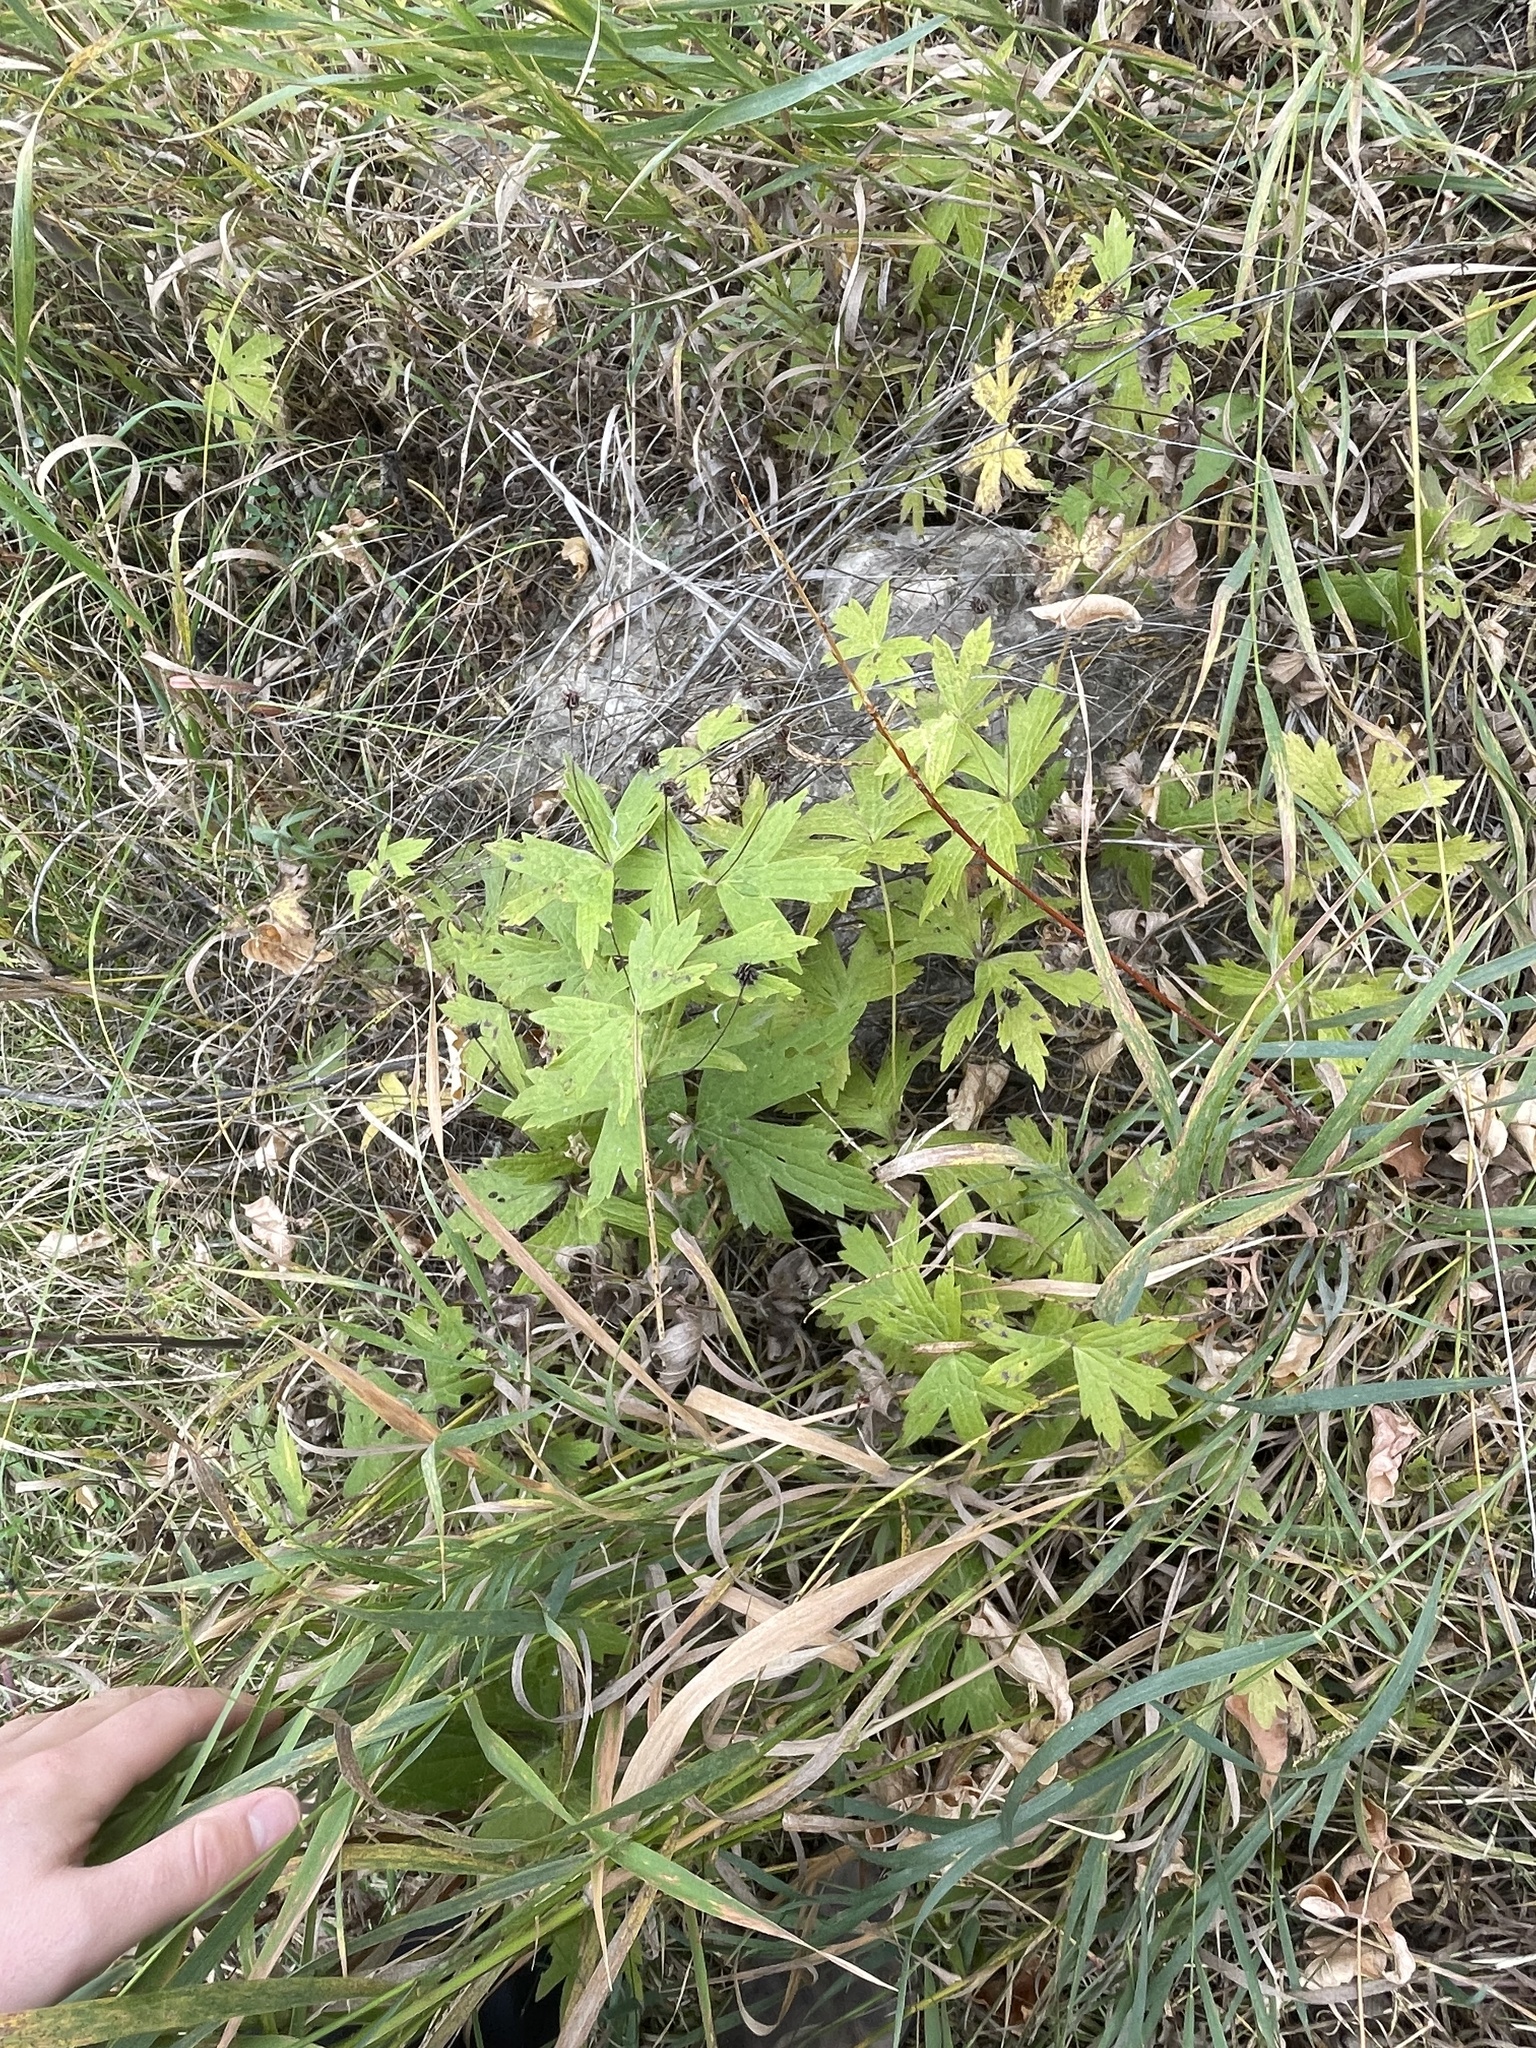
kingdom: Plantae
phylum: Tracheophyta
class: Magnoliopsida
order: Ranunculales
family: Ranunculaceae
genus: Anemonastrum
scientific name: Anemonastrum canadense
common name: Canada anemone
